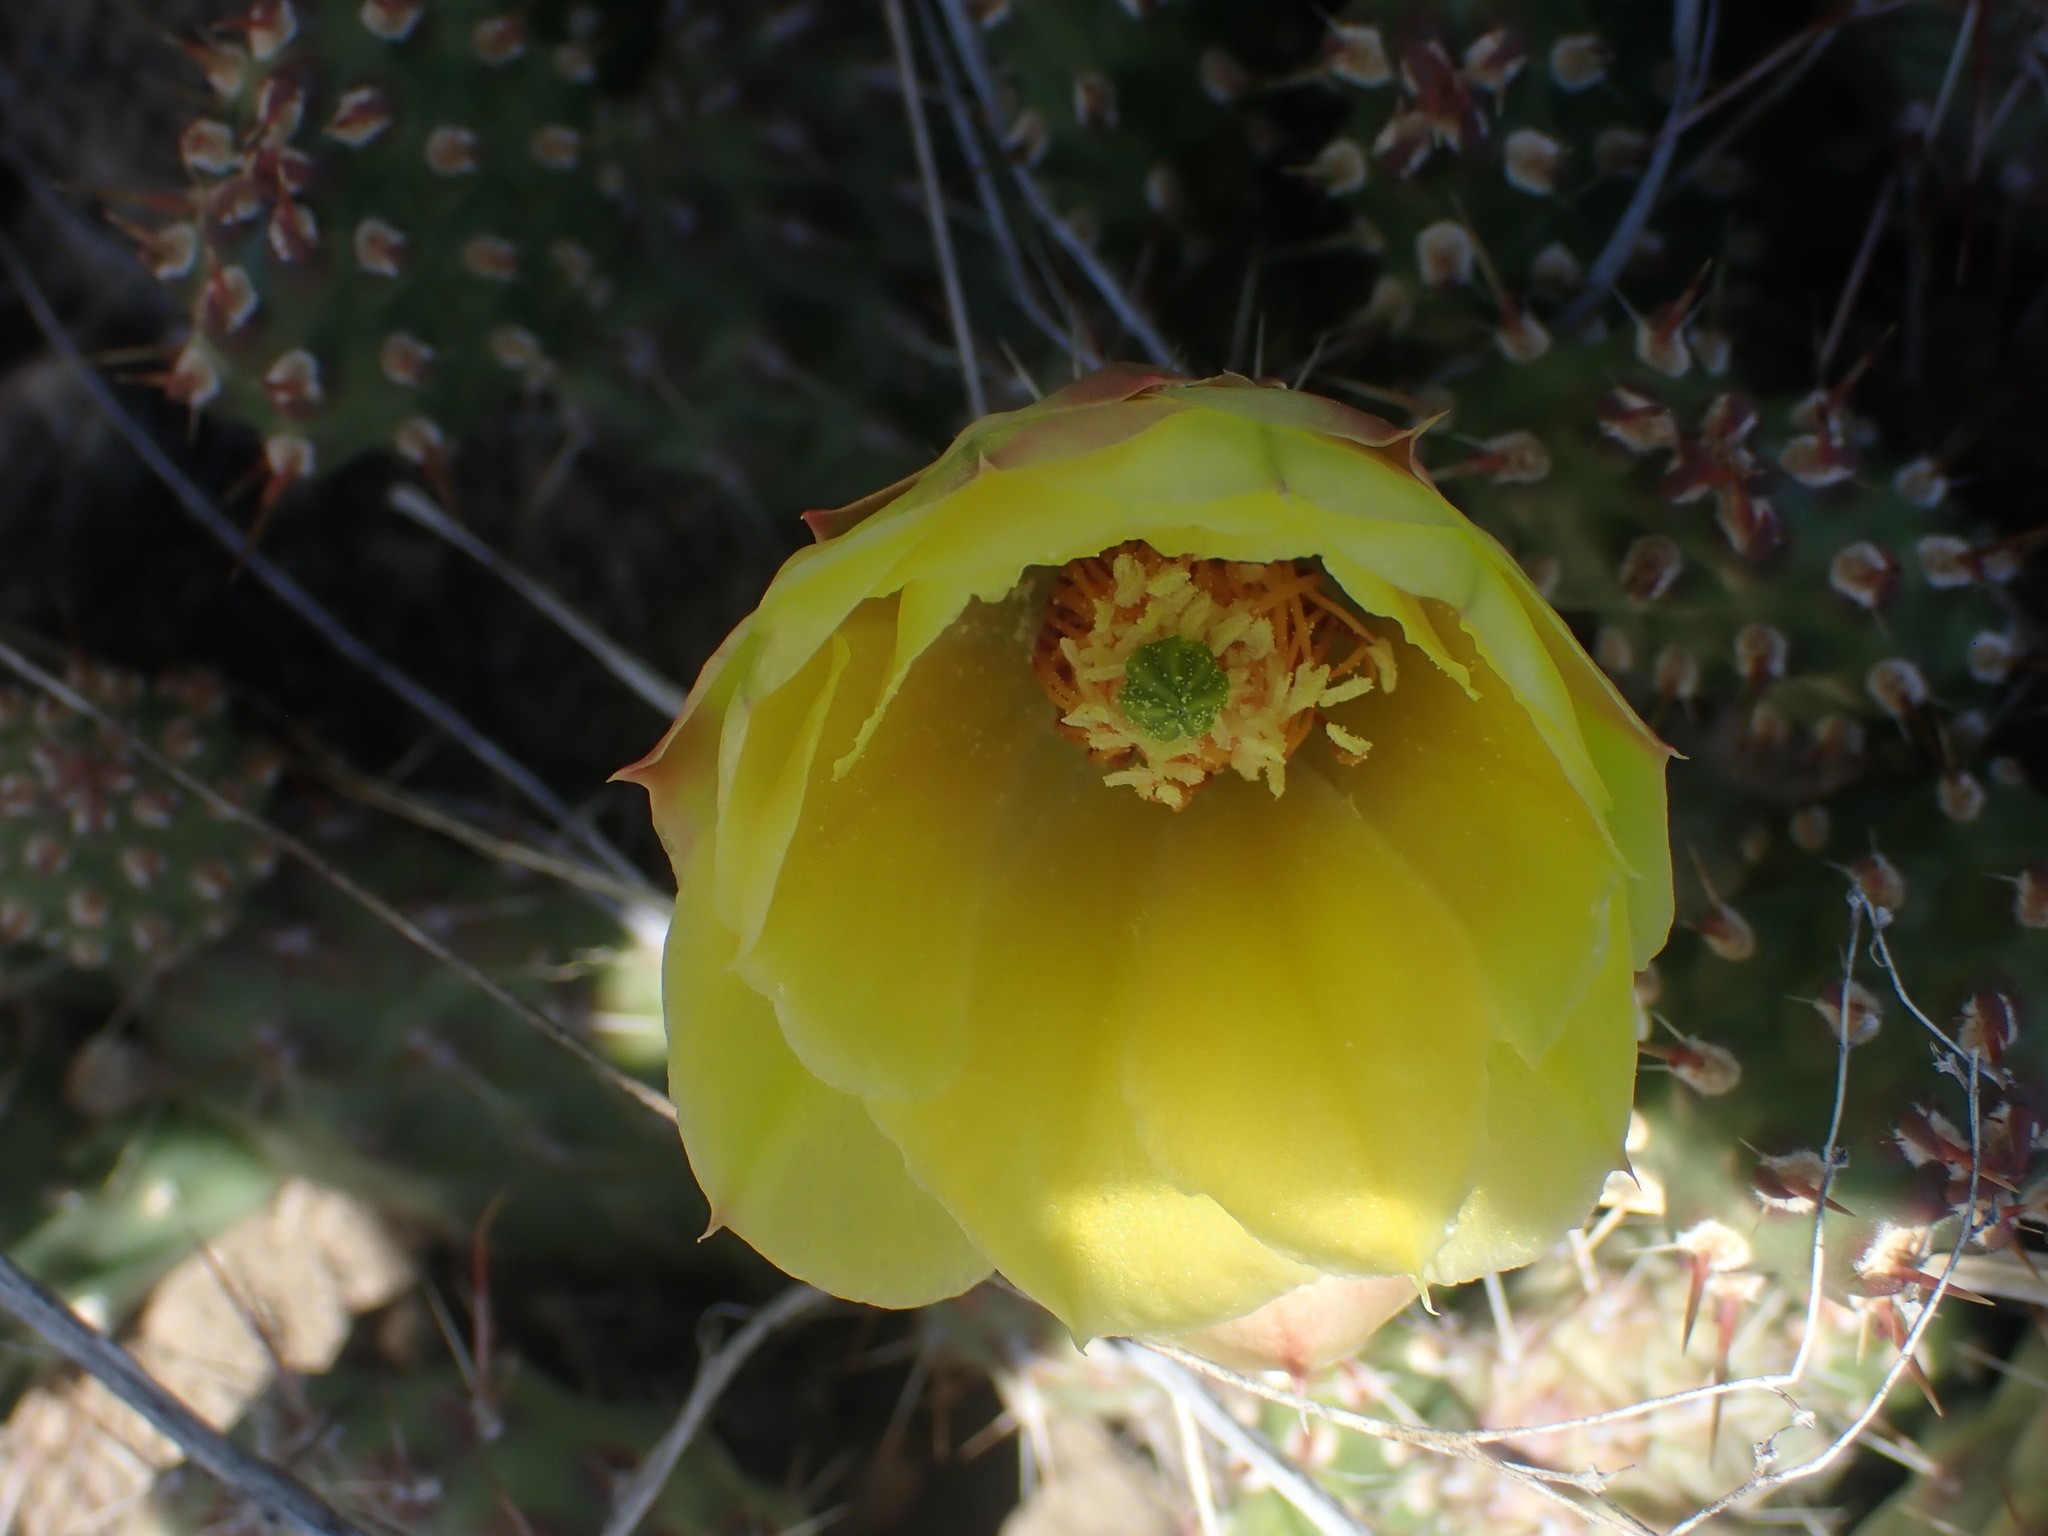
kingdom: Plantae
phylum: Tracheophyta
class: Magnoliopsida
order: Caryophyllales
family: Cactaceae
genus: Opuntia
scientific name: Opuntia fragilis
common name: Brittle cactus
